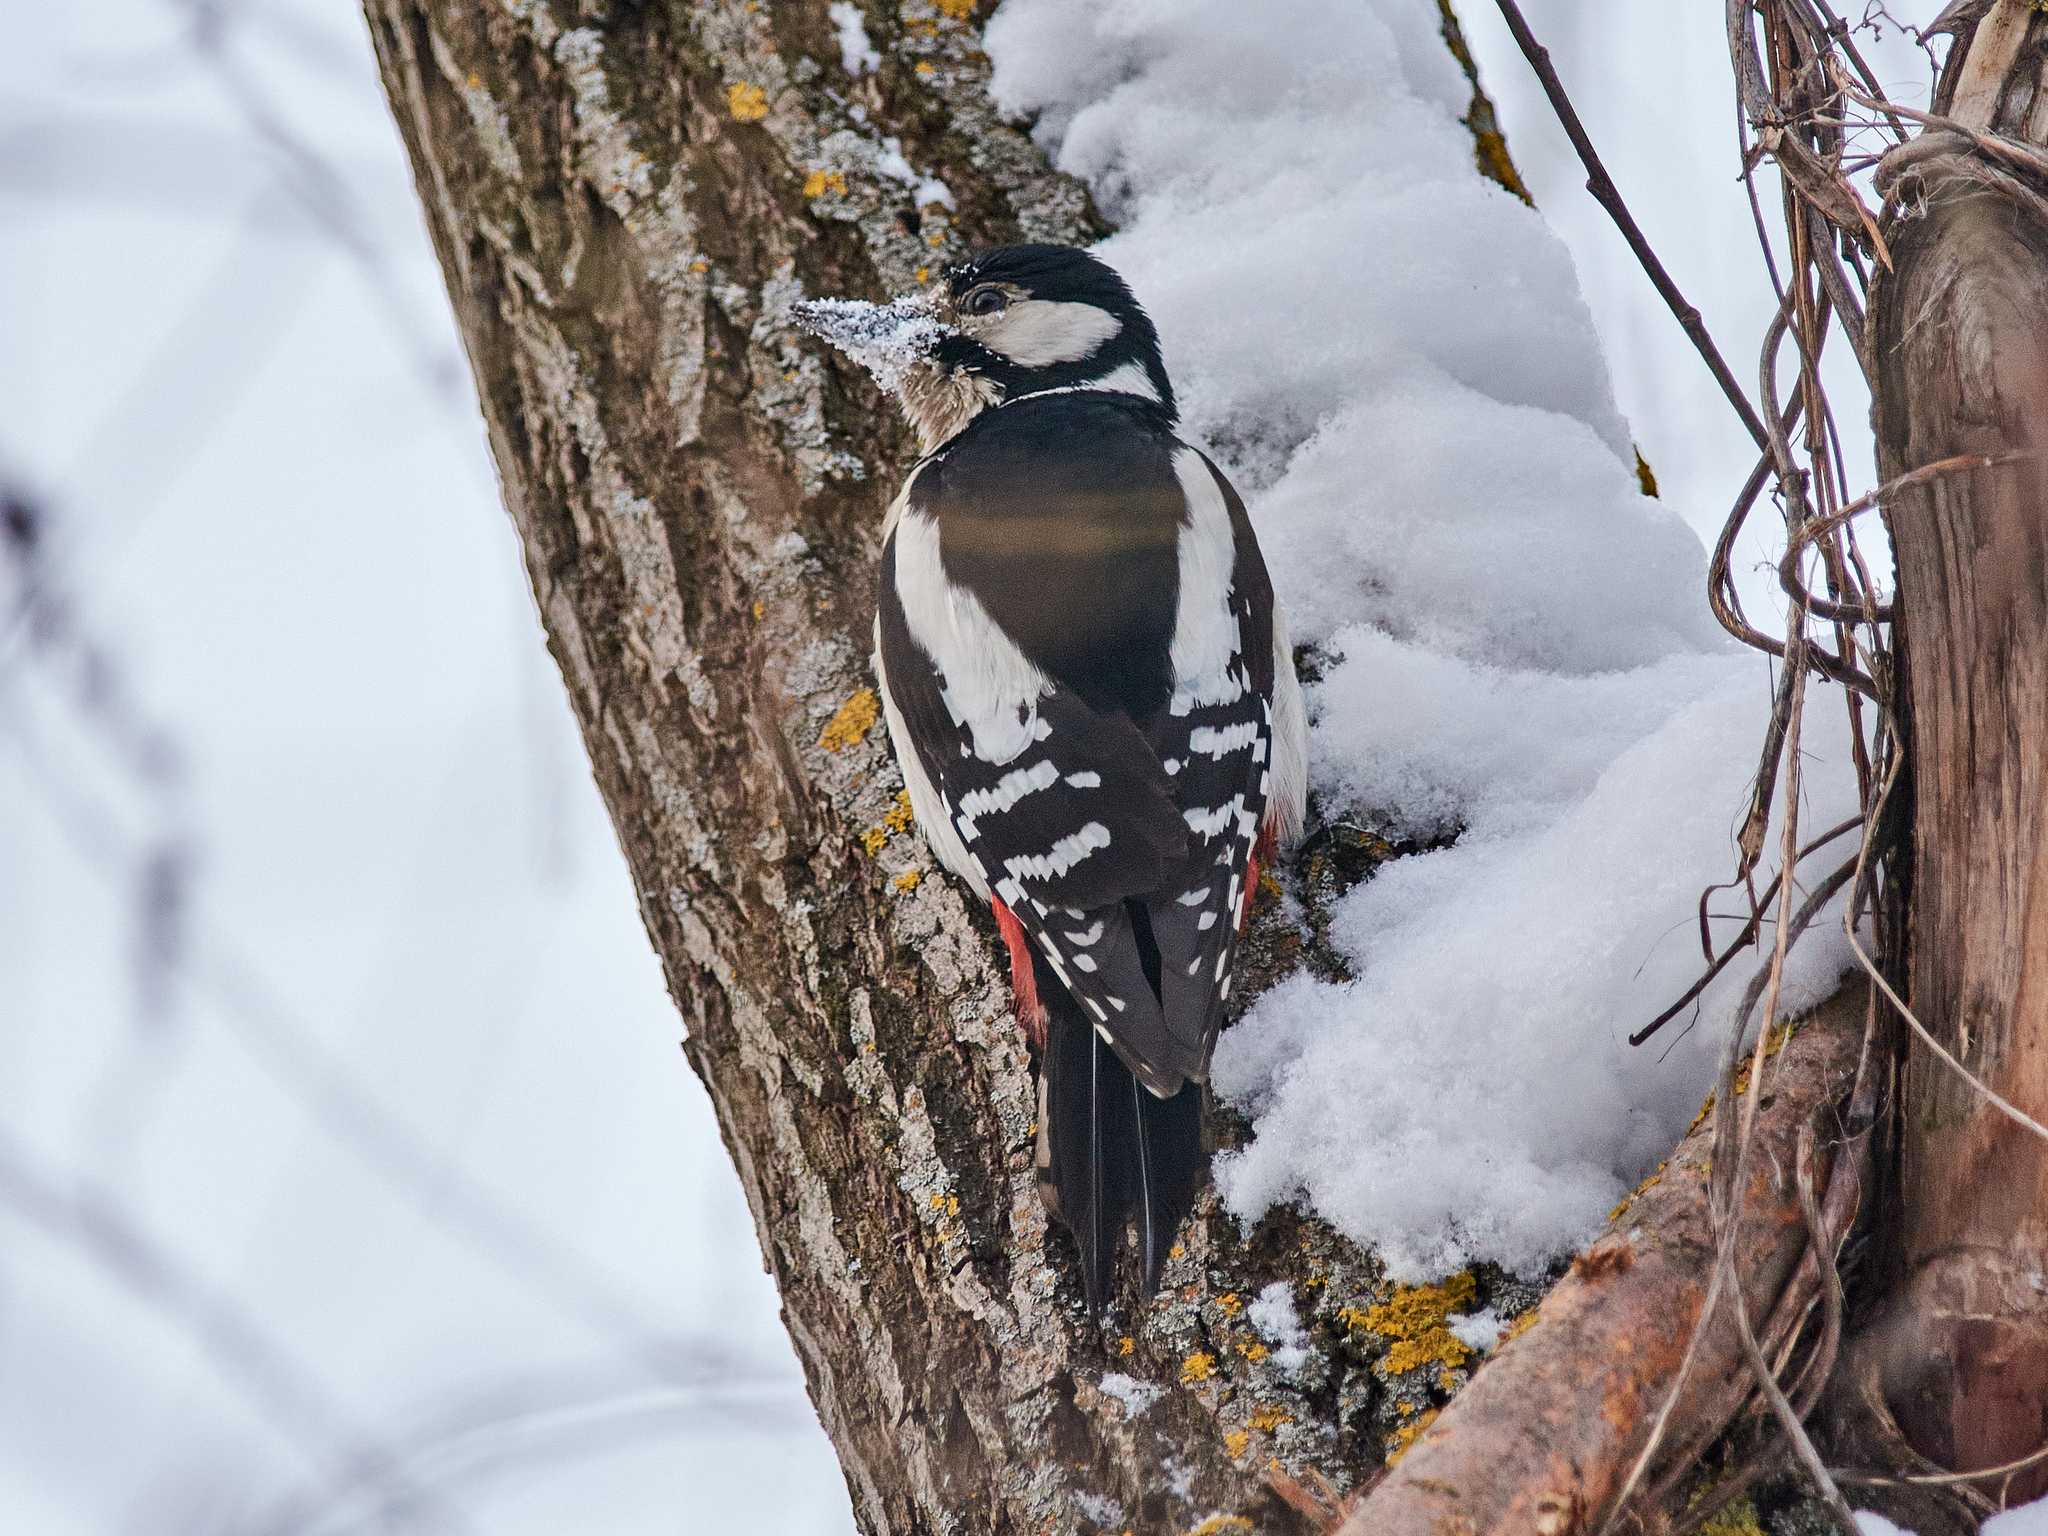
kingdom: Animalia
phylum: Chordata
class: Aves
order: Piciformes
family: Picidae
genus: Dendrocopos
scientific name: Dendrocopos major
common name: Great spotted woodpecker
